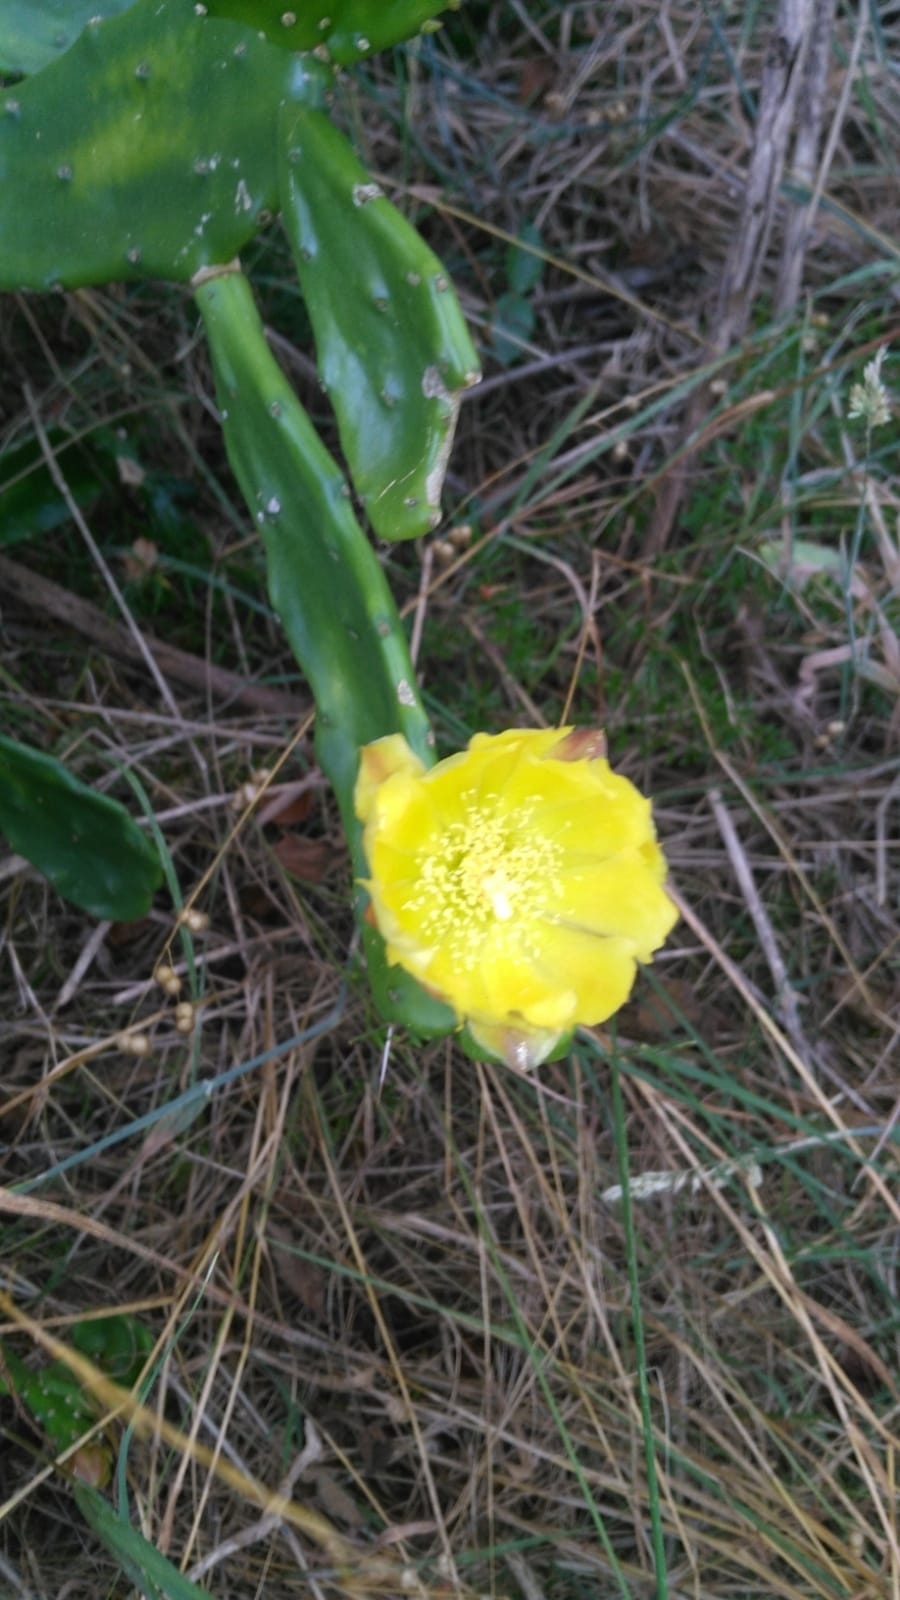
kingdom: Plantae
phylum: Tracheophyta
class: Magnoliopsida
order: Caryophyllales
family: Cactaceae
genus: Opuntia
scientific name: Opuntia monacantha
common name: Common pricklypear
